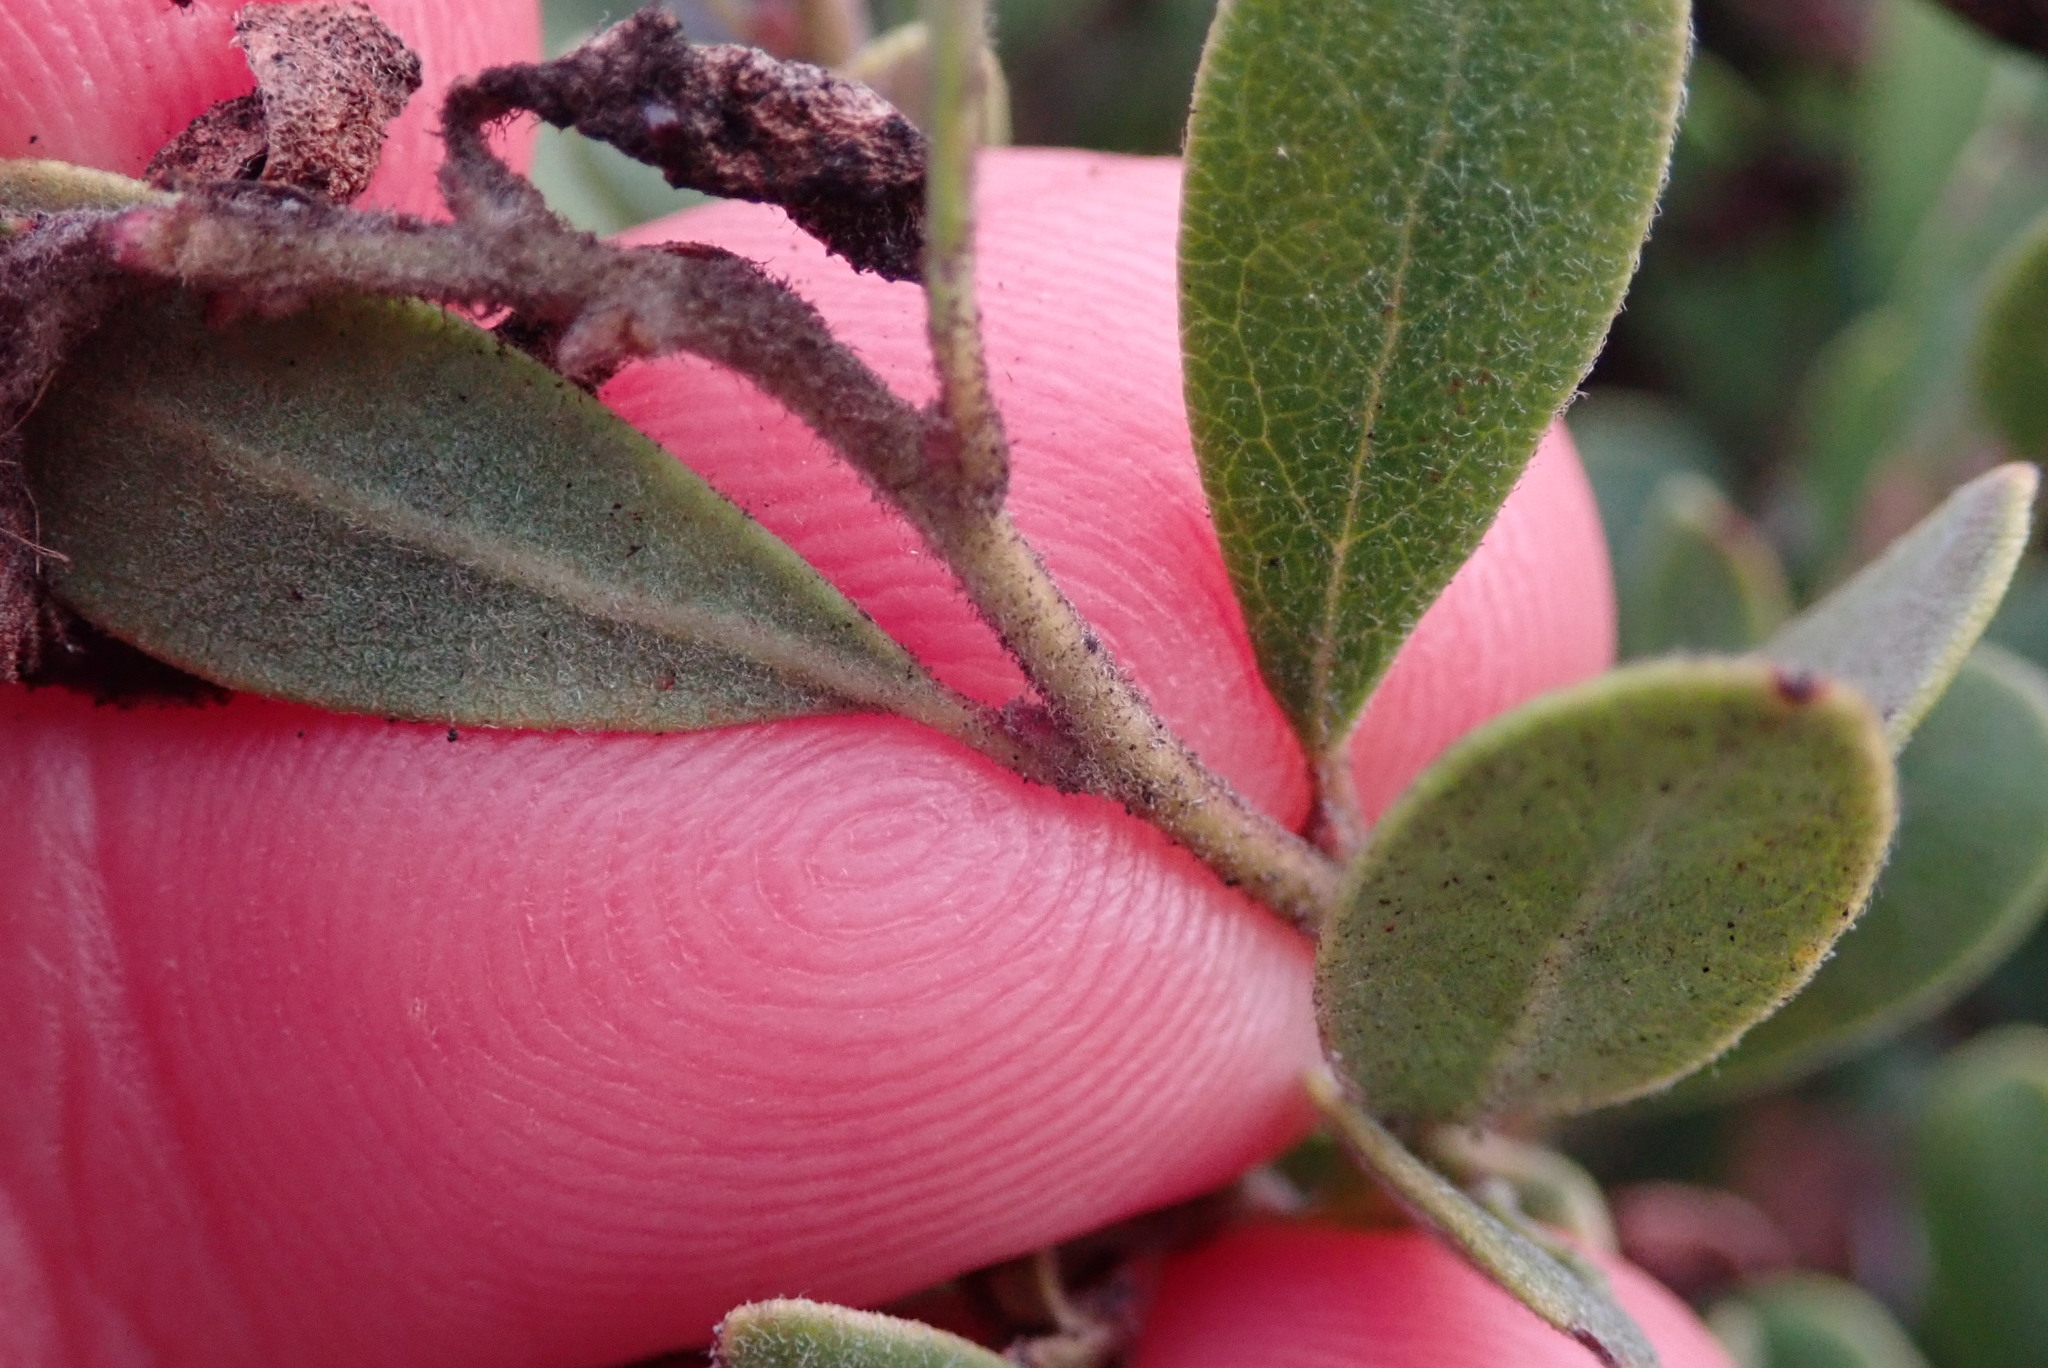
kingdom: Plantae
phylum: Tracheophyta
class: Magnoliopsida
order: Ericales
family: Ericaceae
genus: Arctostaphylos
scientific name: Arctostaphylos pumila
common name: Sandmat manzanita
